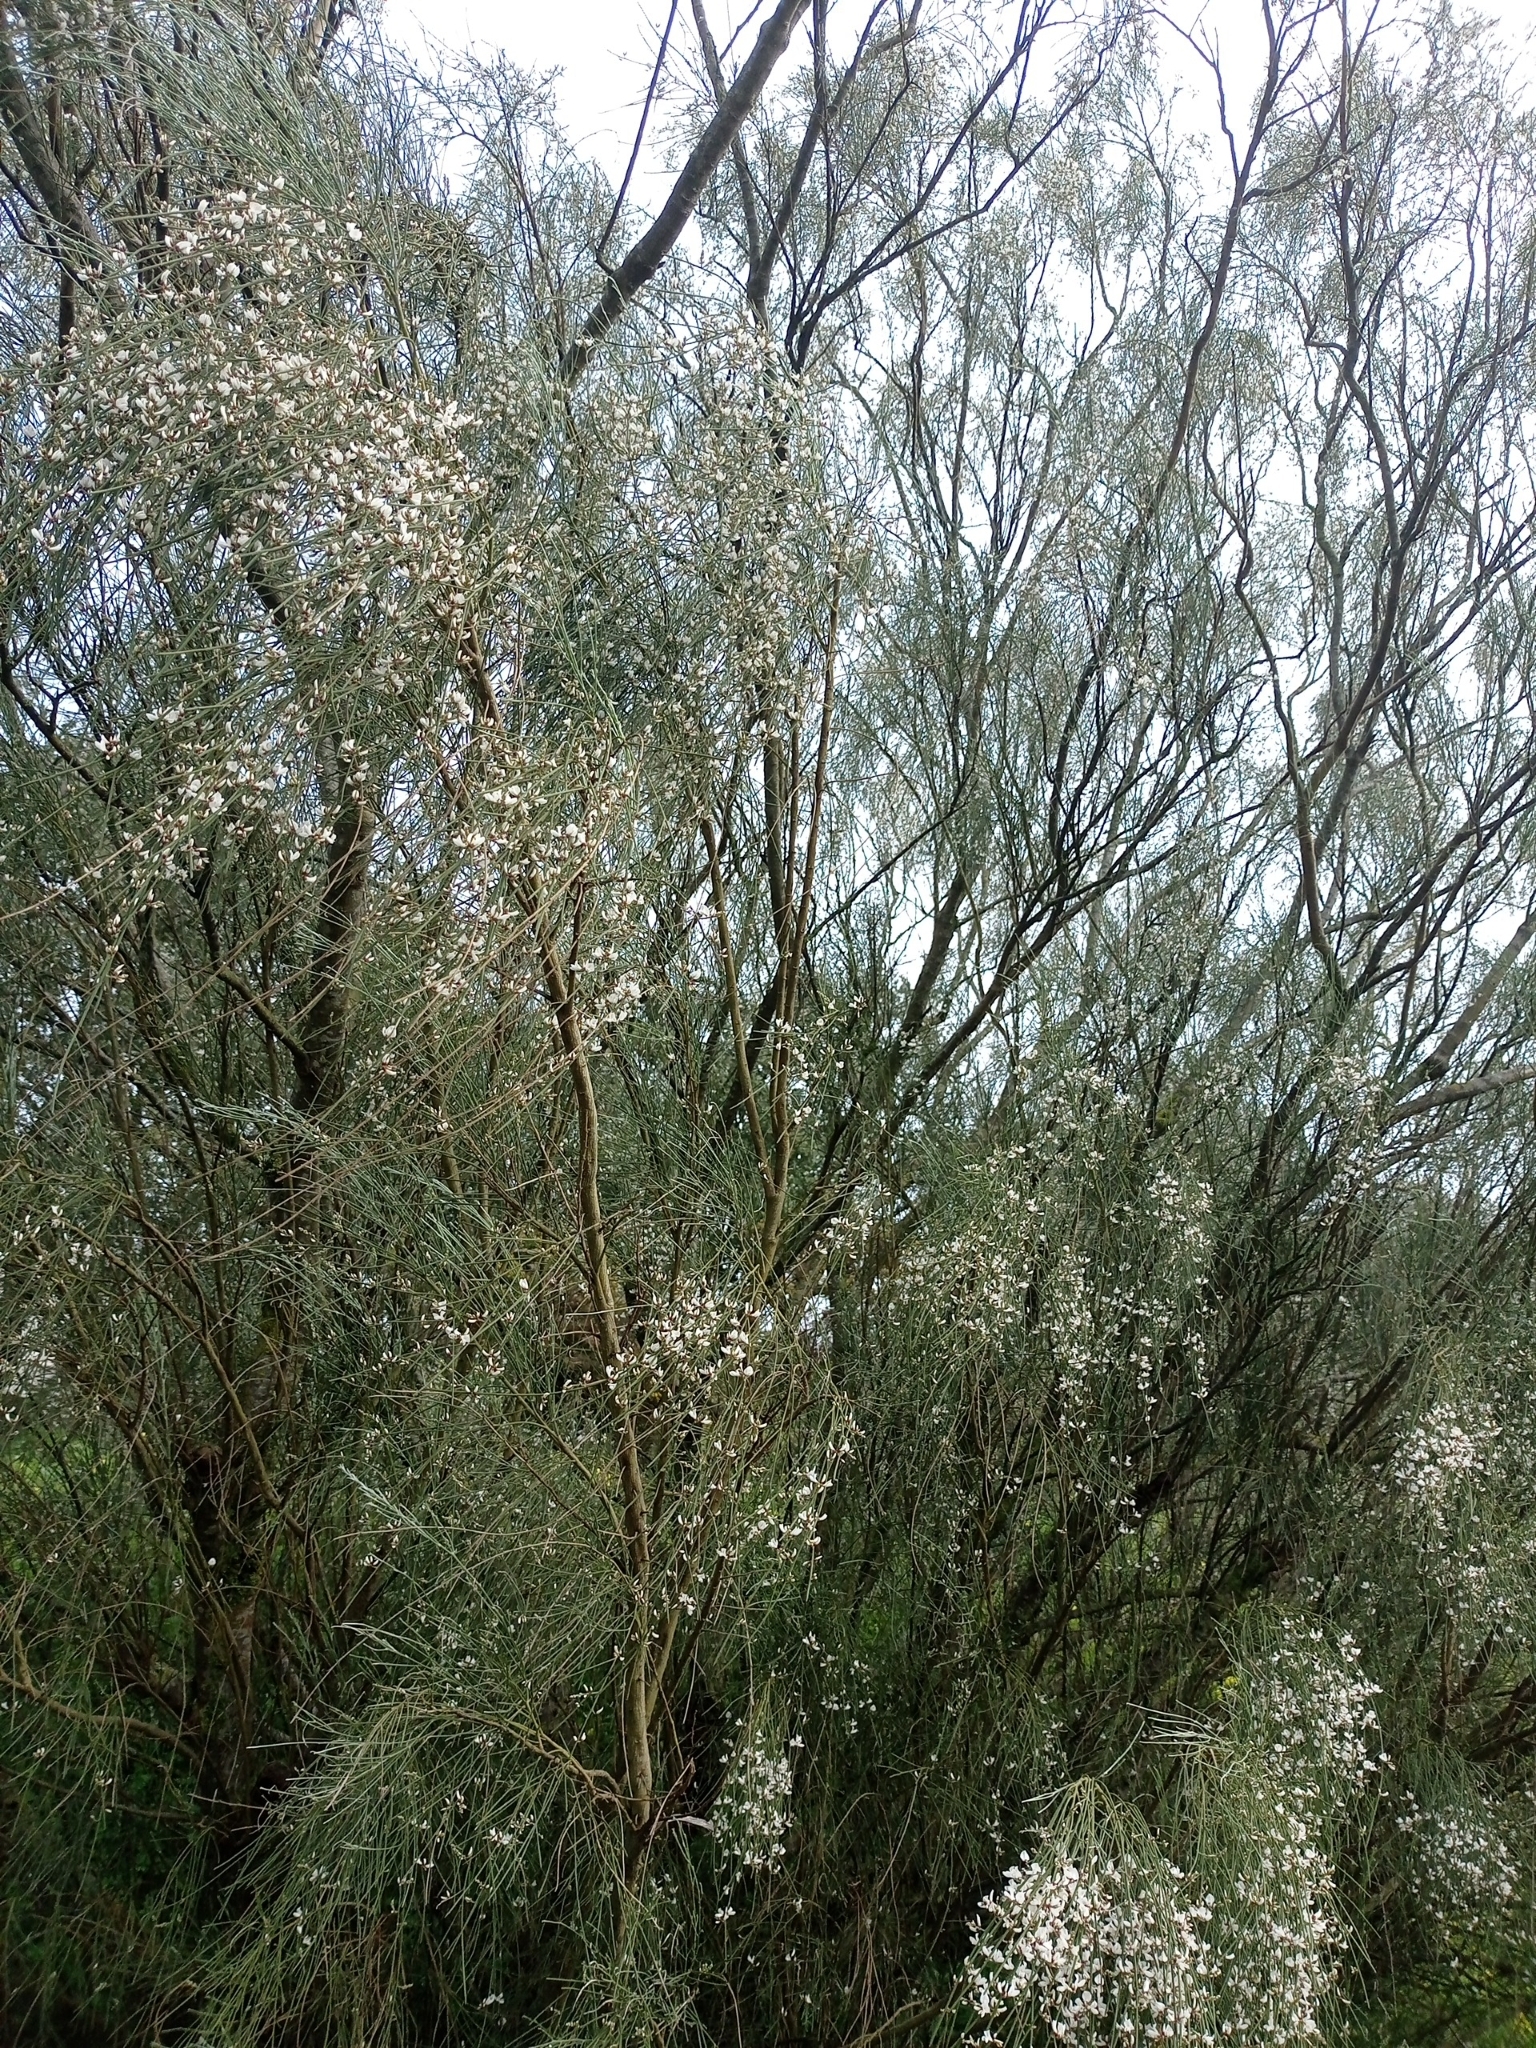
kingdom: Plantae
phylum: Tracheophyta
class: Magnoliopsida
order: Fabales
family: Fabaceae
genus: Retama
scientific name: Retama monosperma
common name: Bridal broom
